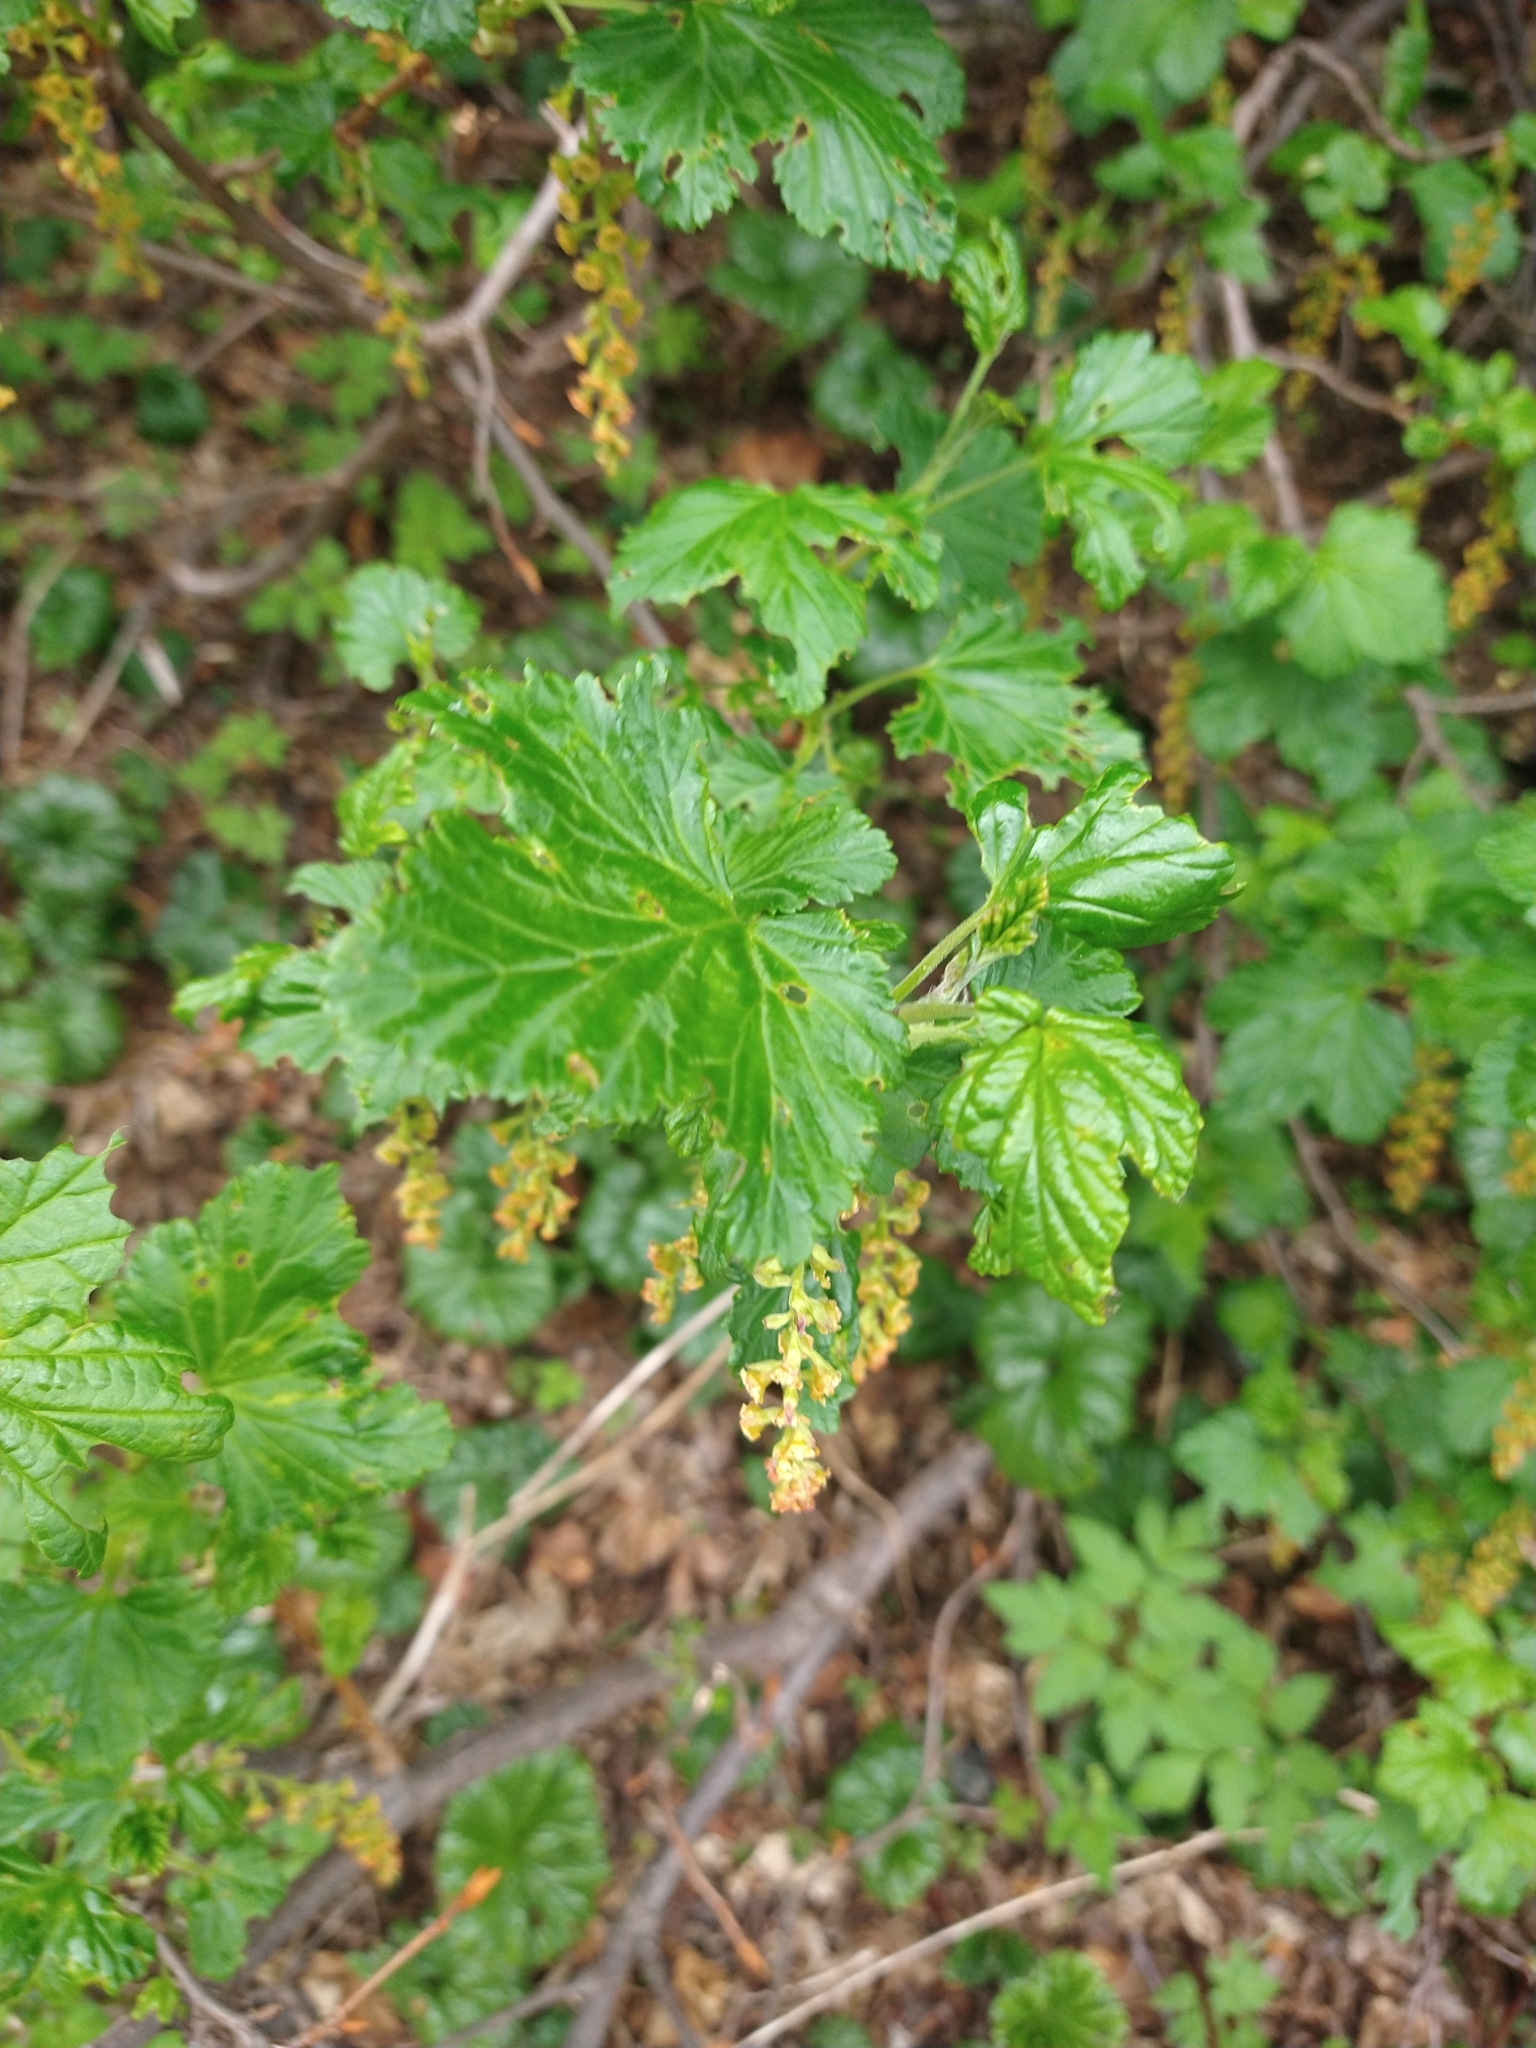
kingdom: Plantae
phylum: Tracheophyta
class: Magnoliopsida
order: Saxifragales
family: Grossulariaceae
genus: Ribes
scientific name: Ribes magellanicum
